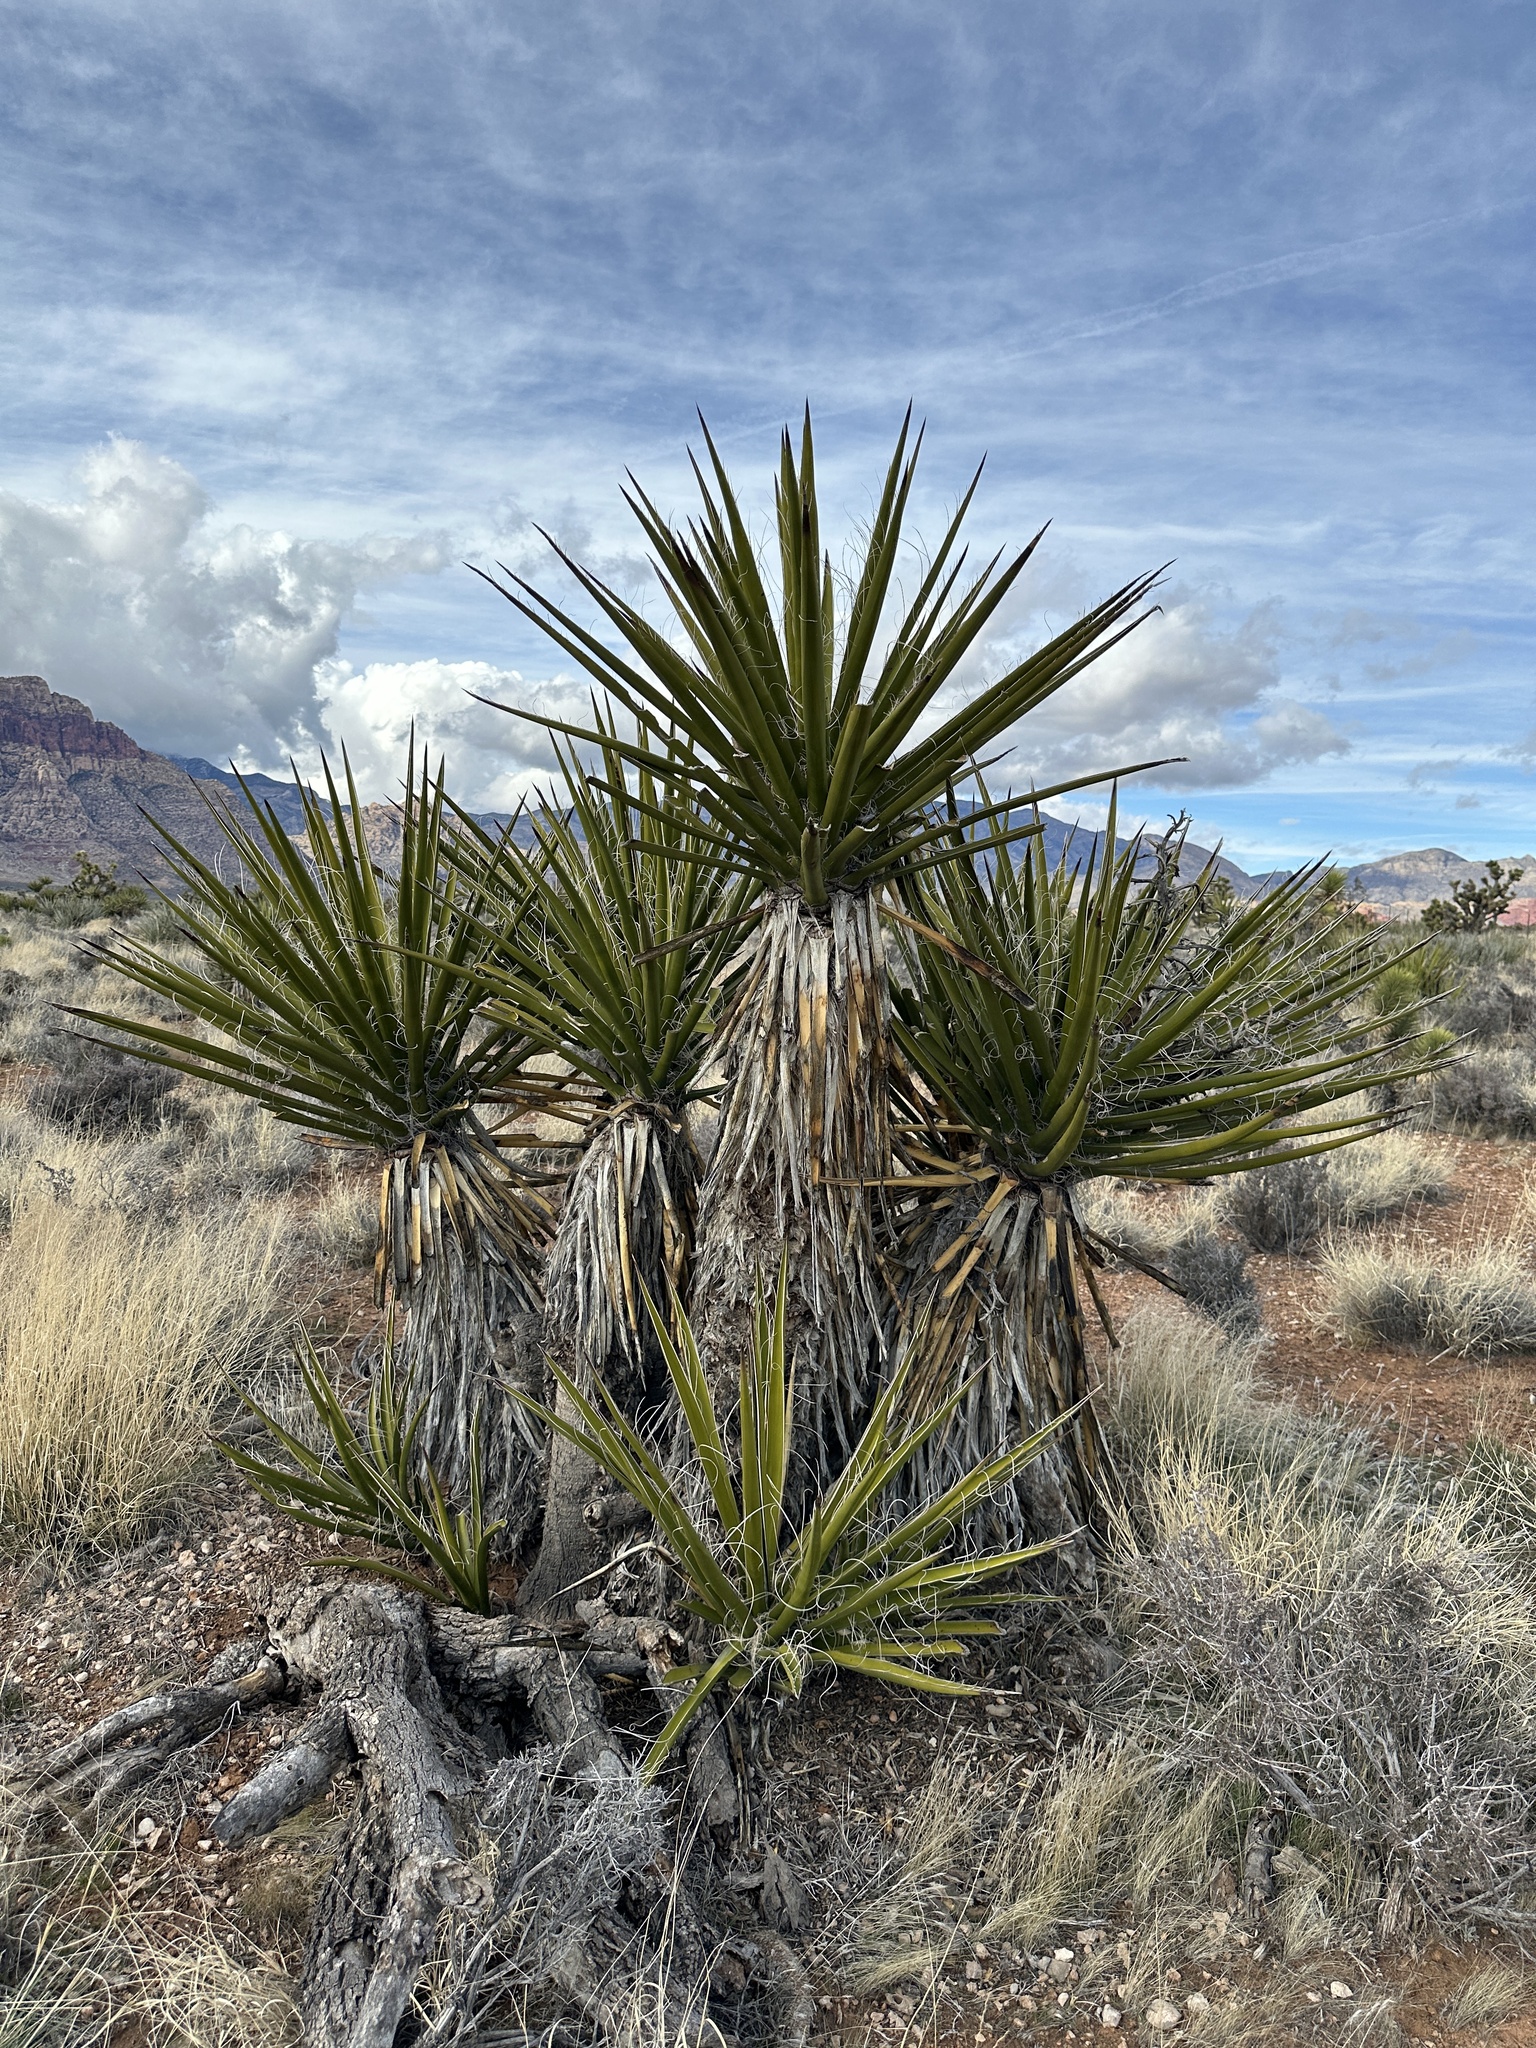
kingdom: Plantae
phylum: Tracheophyta
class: Liliopsida
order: Asparagales
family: Asparagaceae
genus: Yucca
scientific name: Yucca schidigera
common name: Mojave yucca
